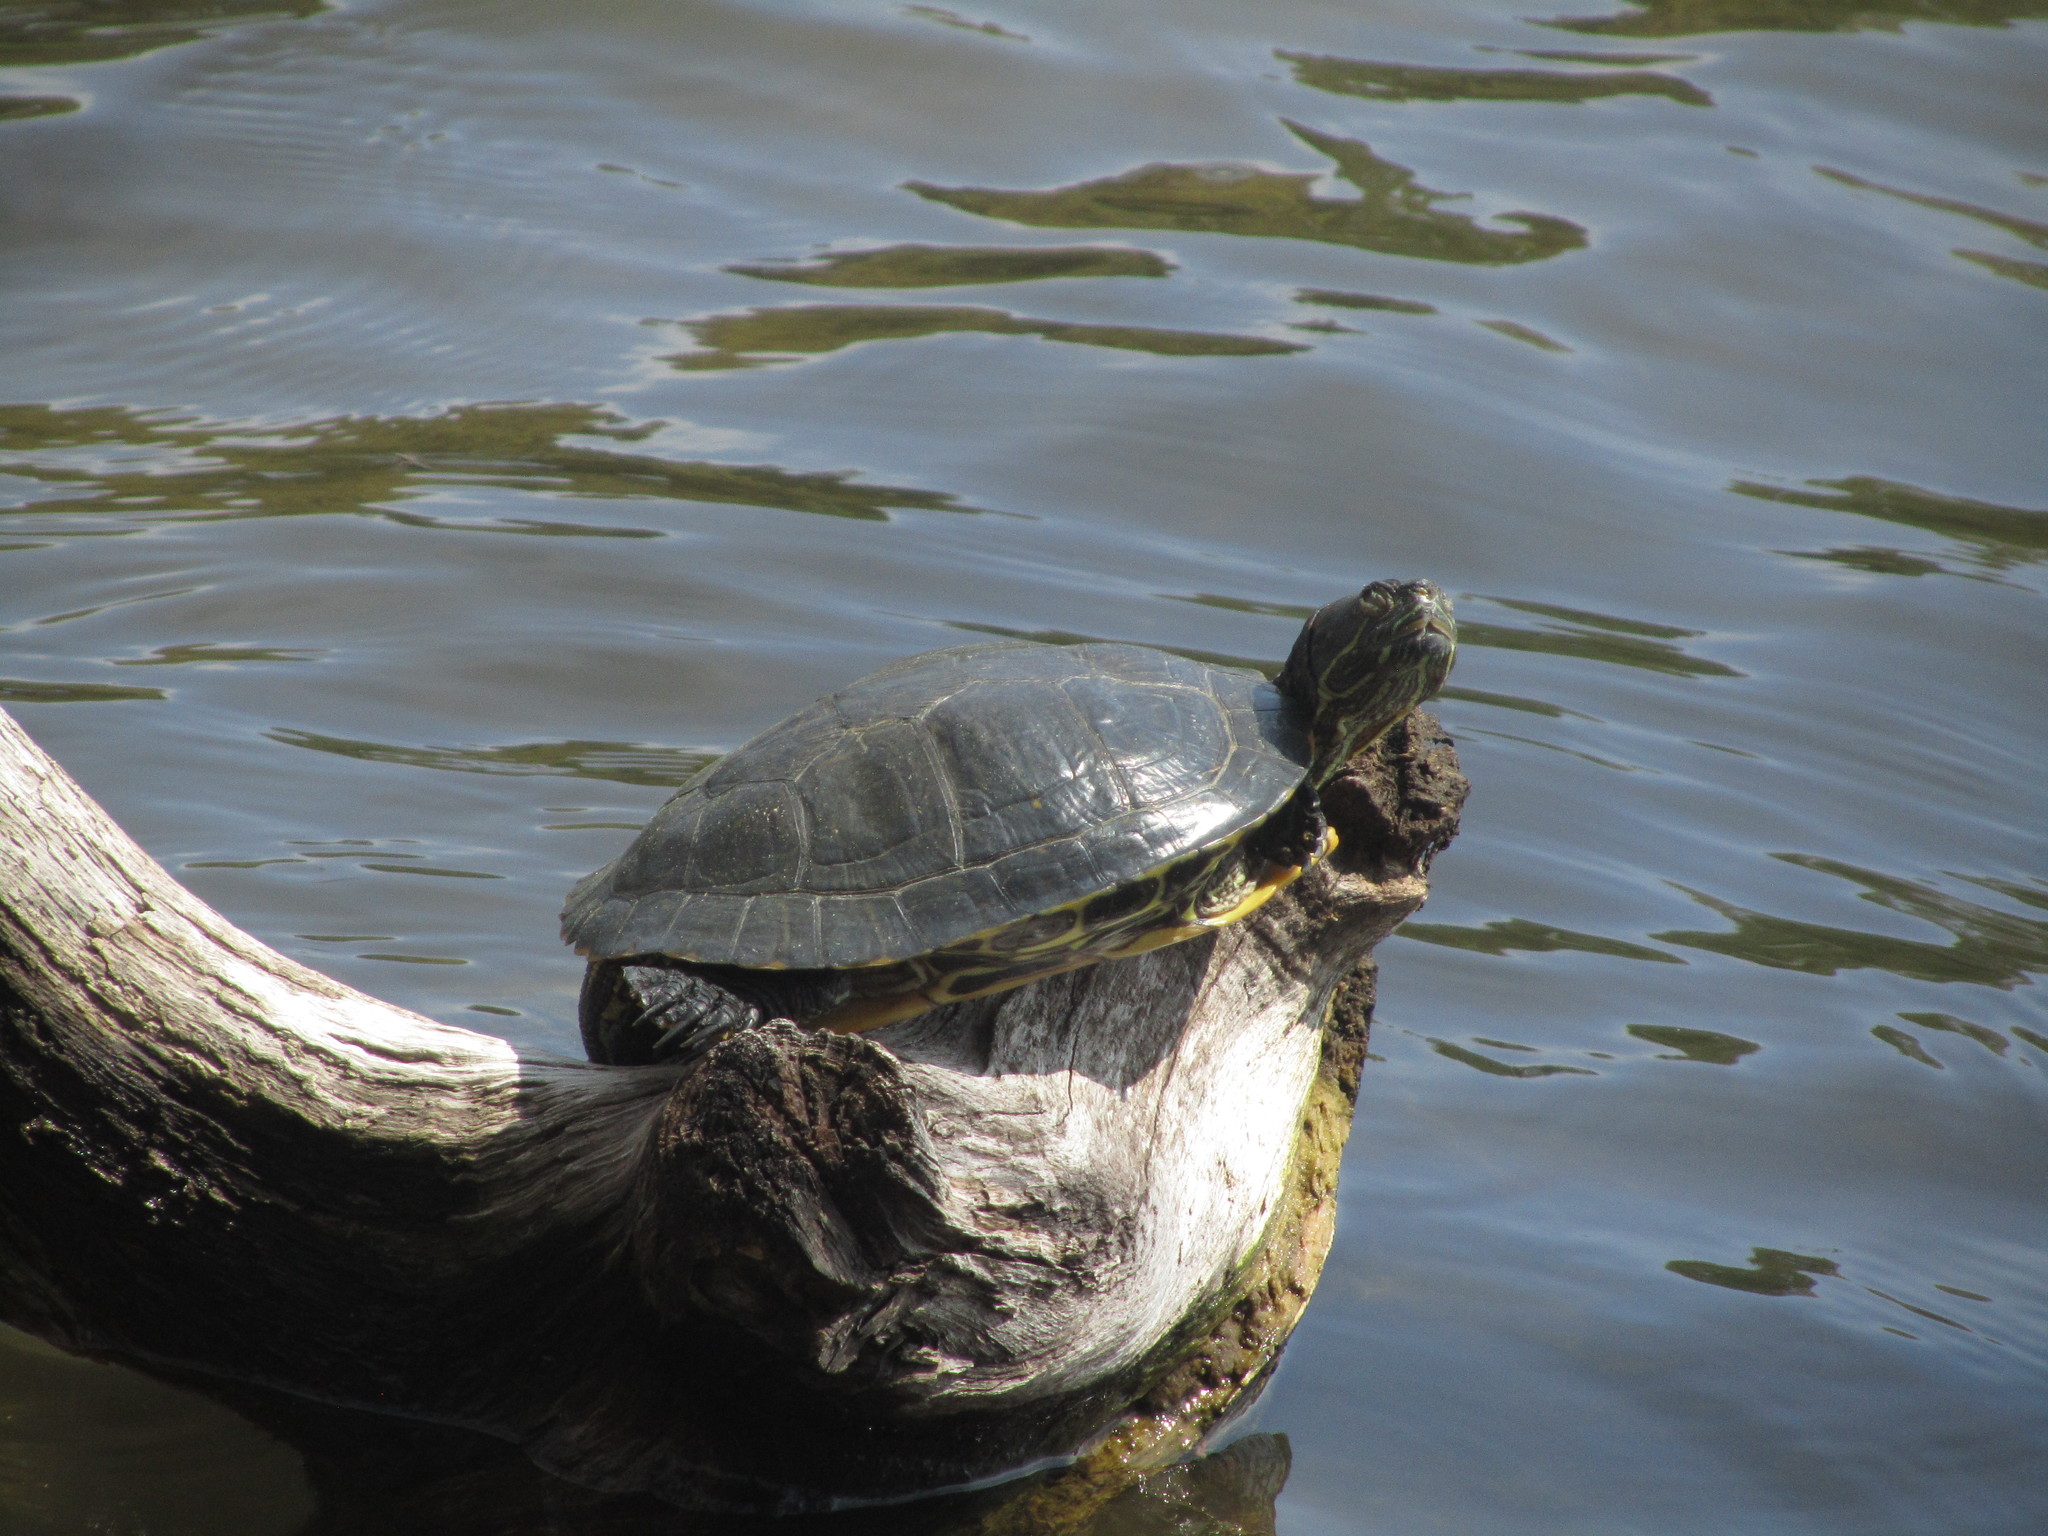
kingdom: Animalia
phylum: Chordata
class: Testudines
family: Emydidae
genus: Trachemys
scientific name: Trachemys scripta
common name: Slider
